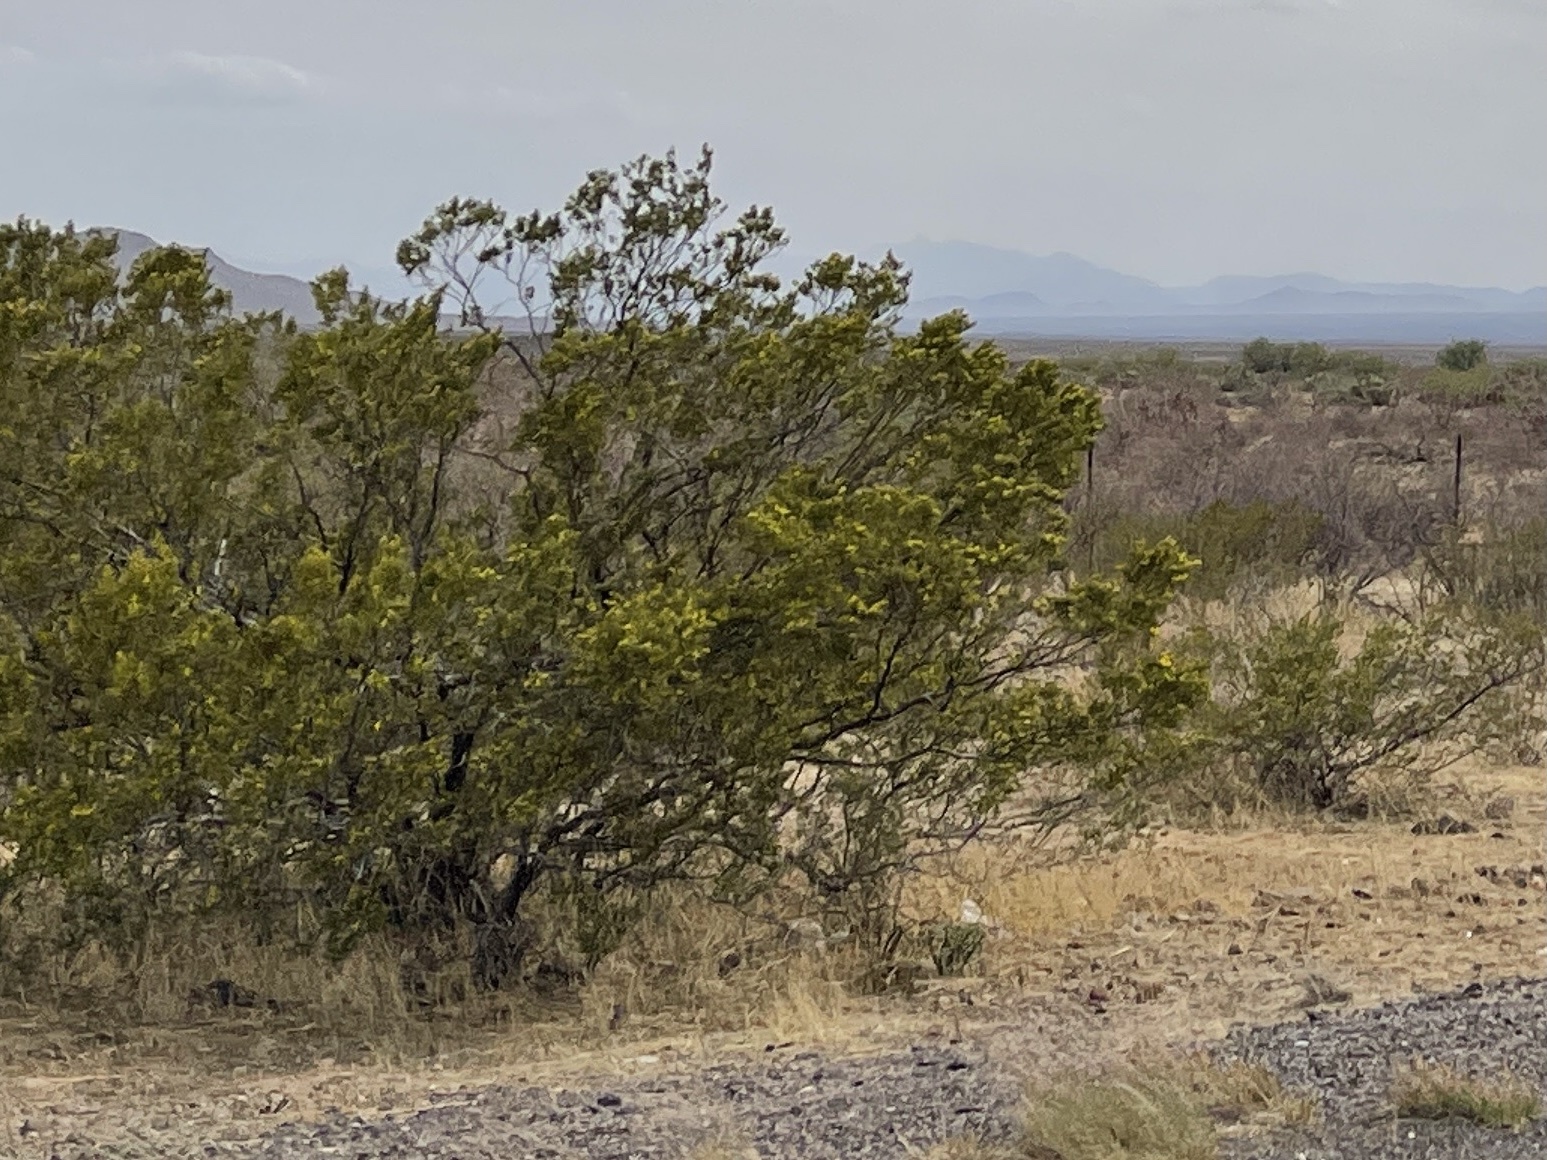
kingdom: Plantae
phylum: Tracheophyta
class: Magnoliopsida
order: Zygophyllales
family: Zygophyllaceae
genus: Larrea
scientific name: Larrea tridentata
